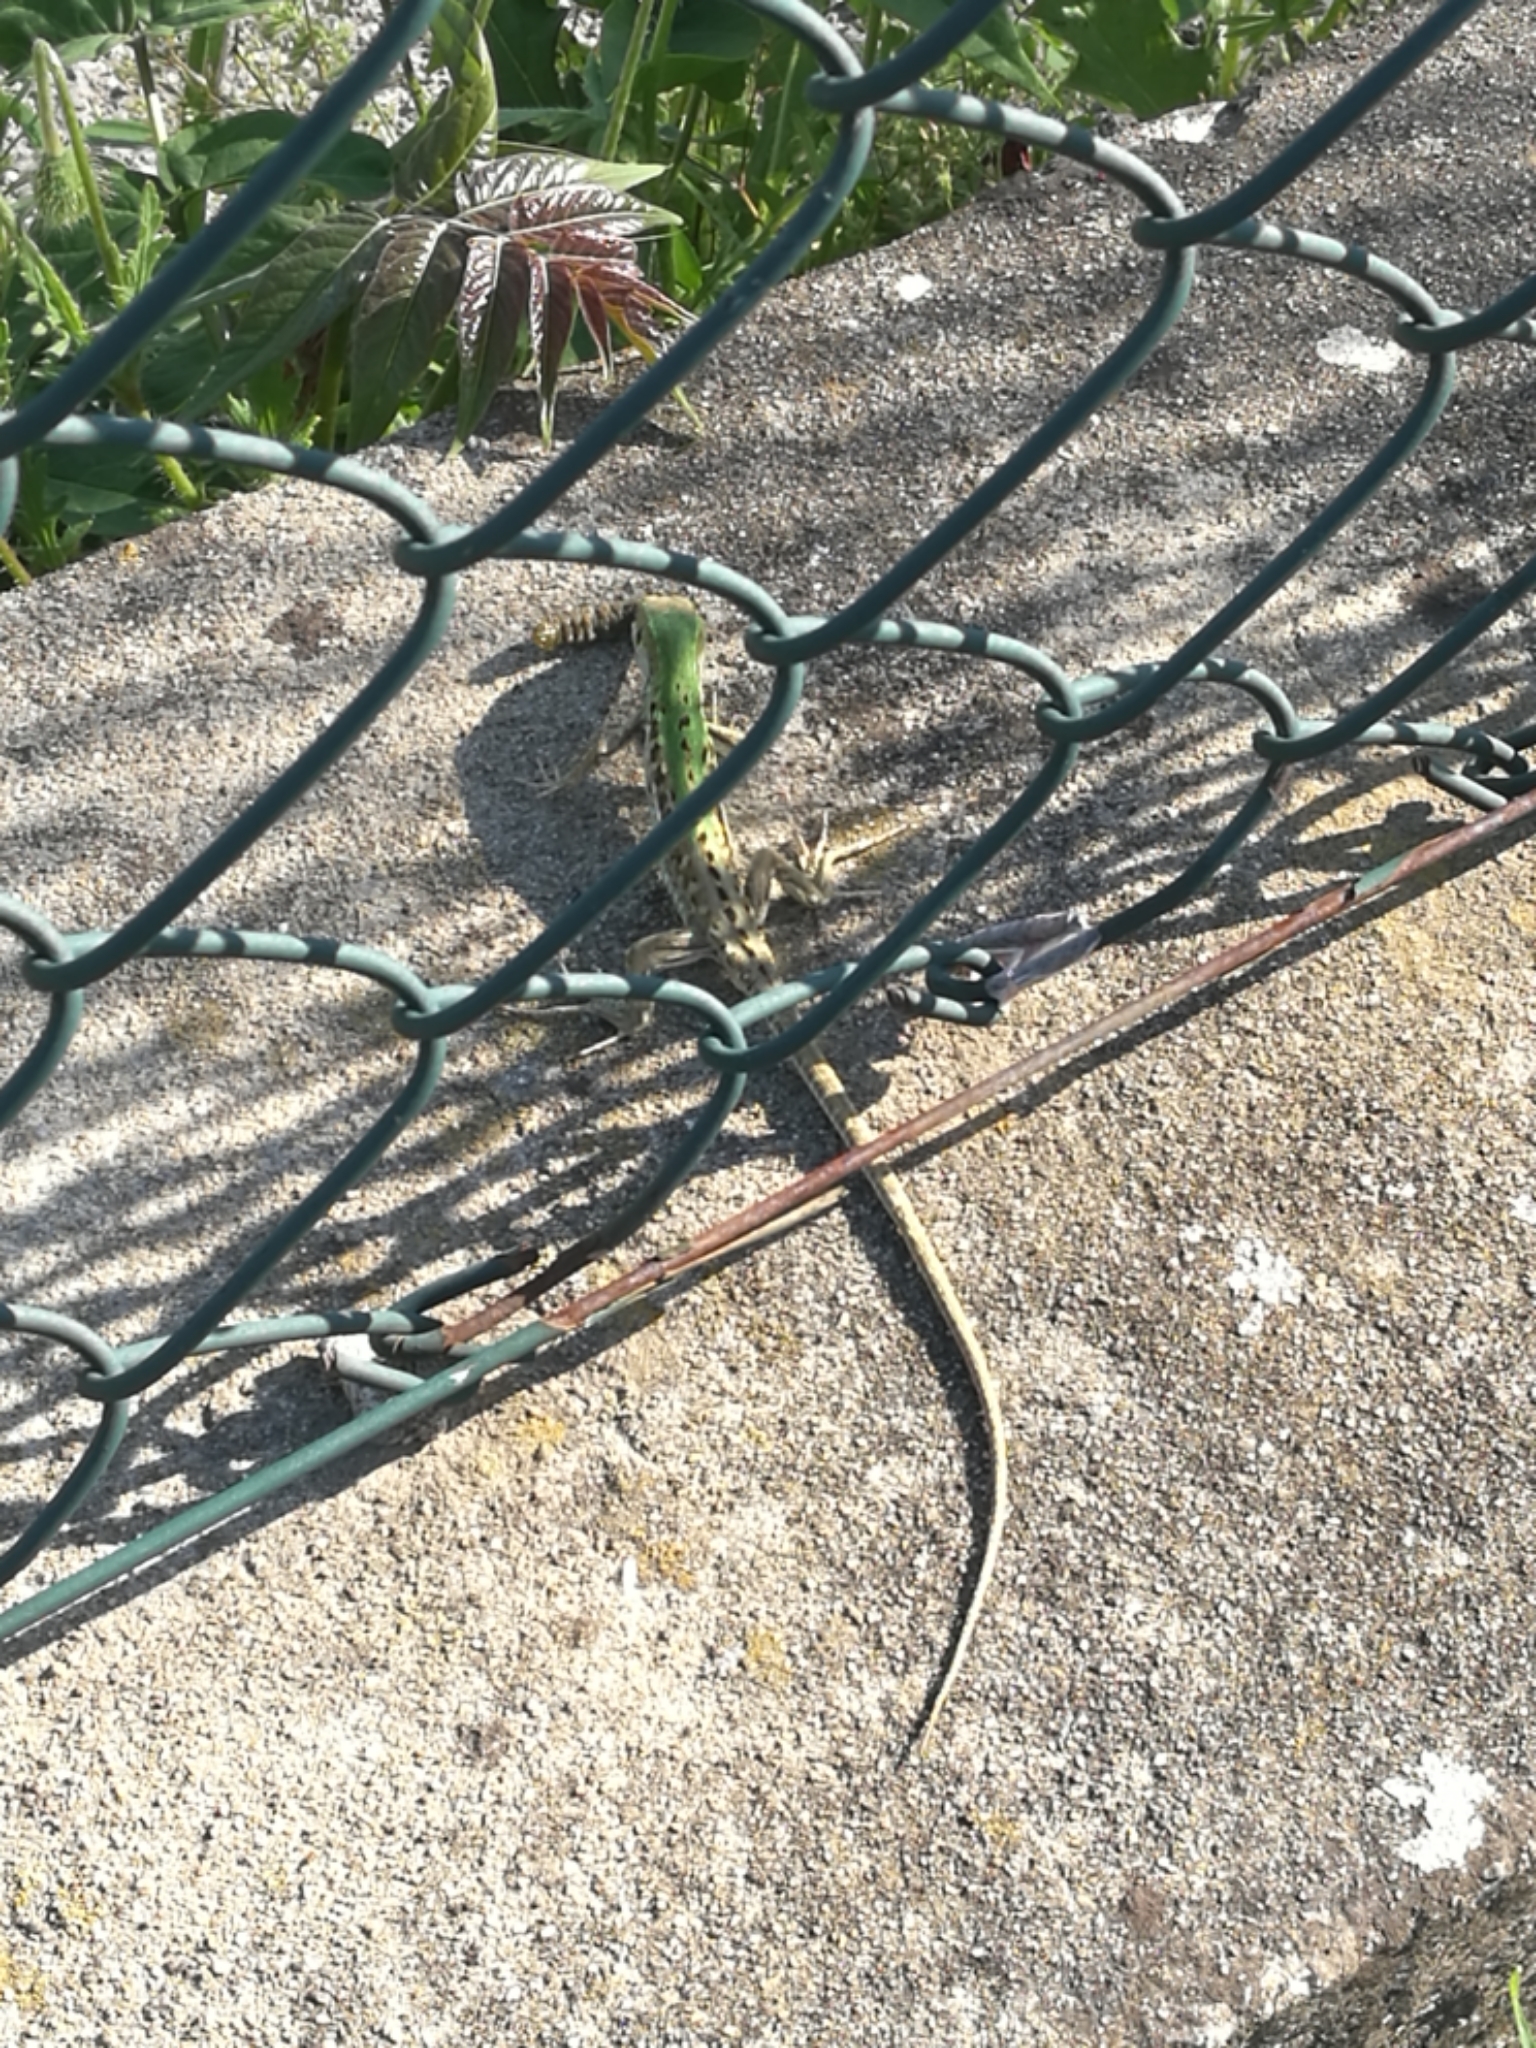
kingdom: Animalia
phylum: Chordata
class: Squamata
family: Lacertidae
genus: Podarcis
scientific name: Podarcis siculus
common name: Italian wall lizard
